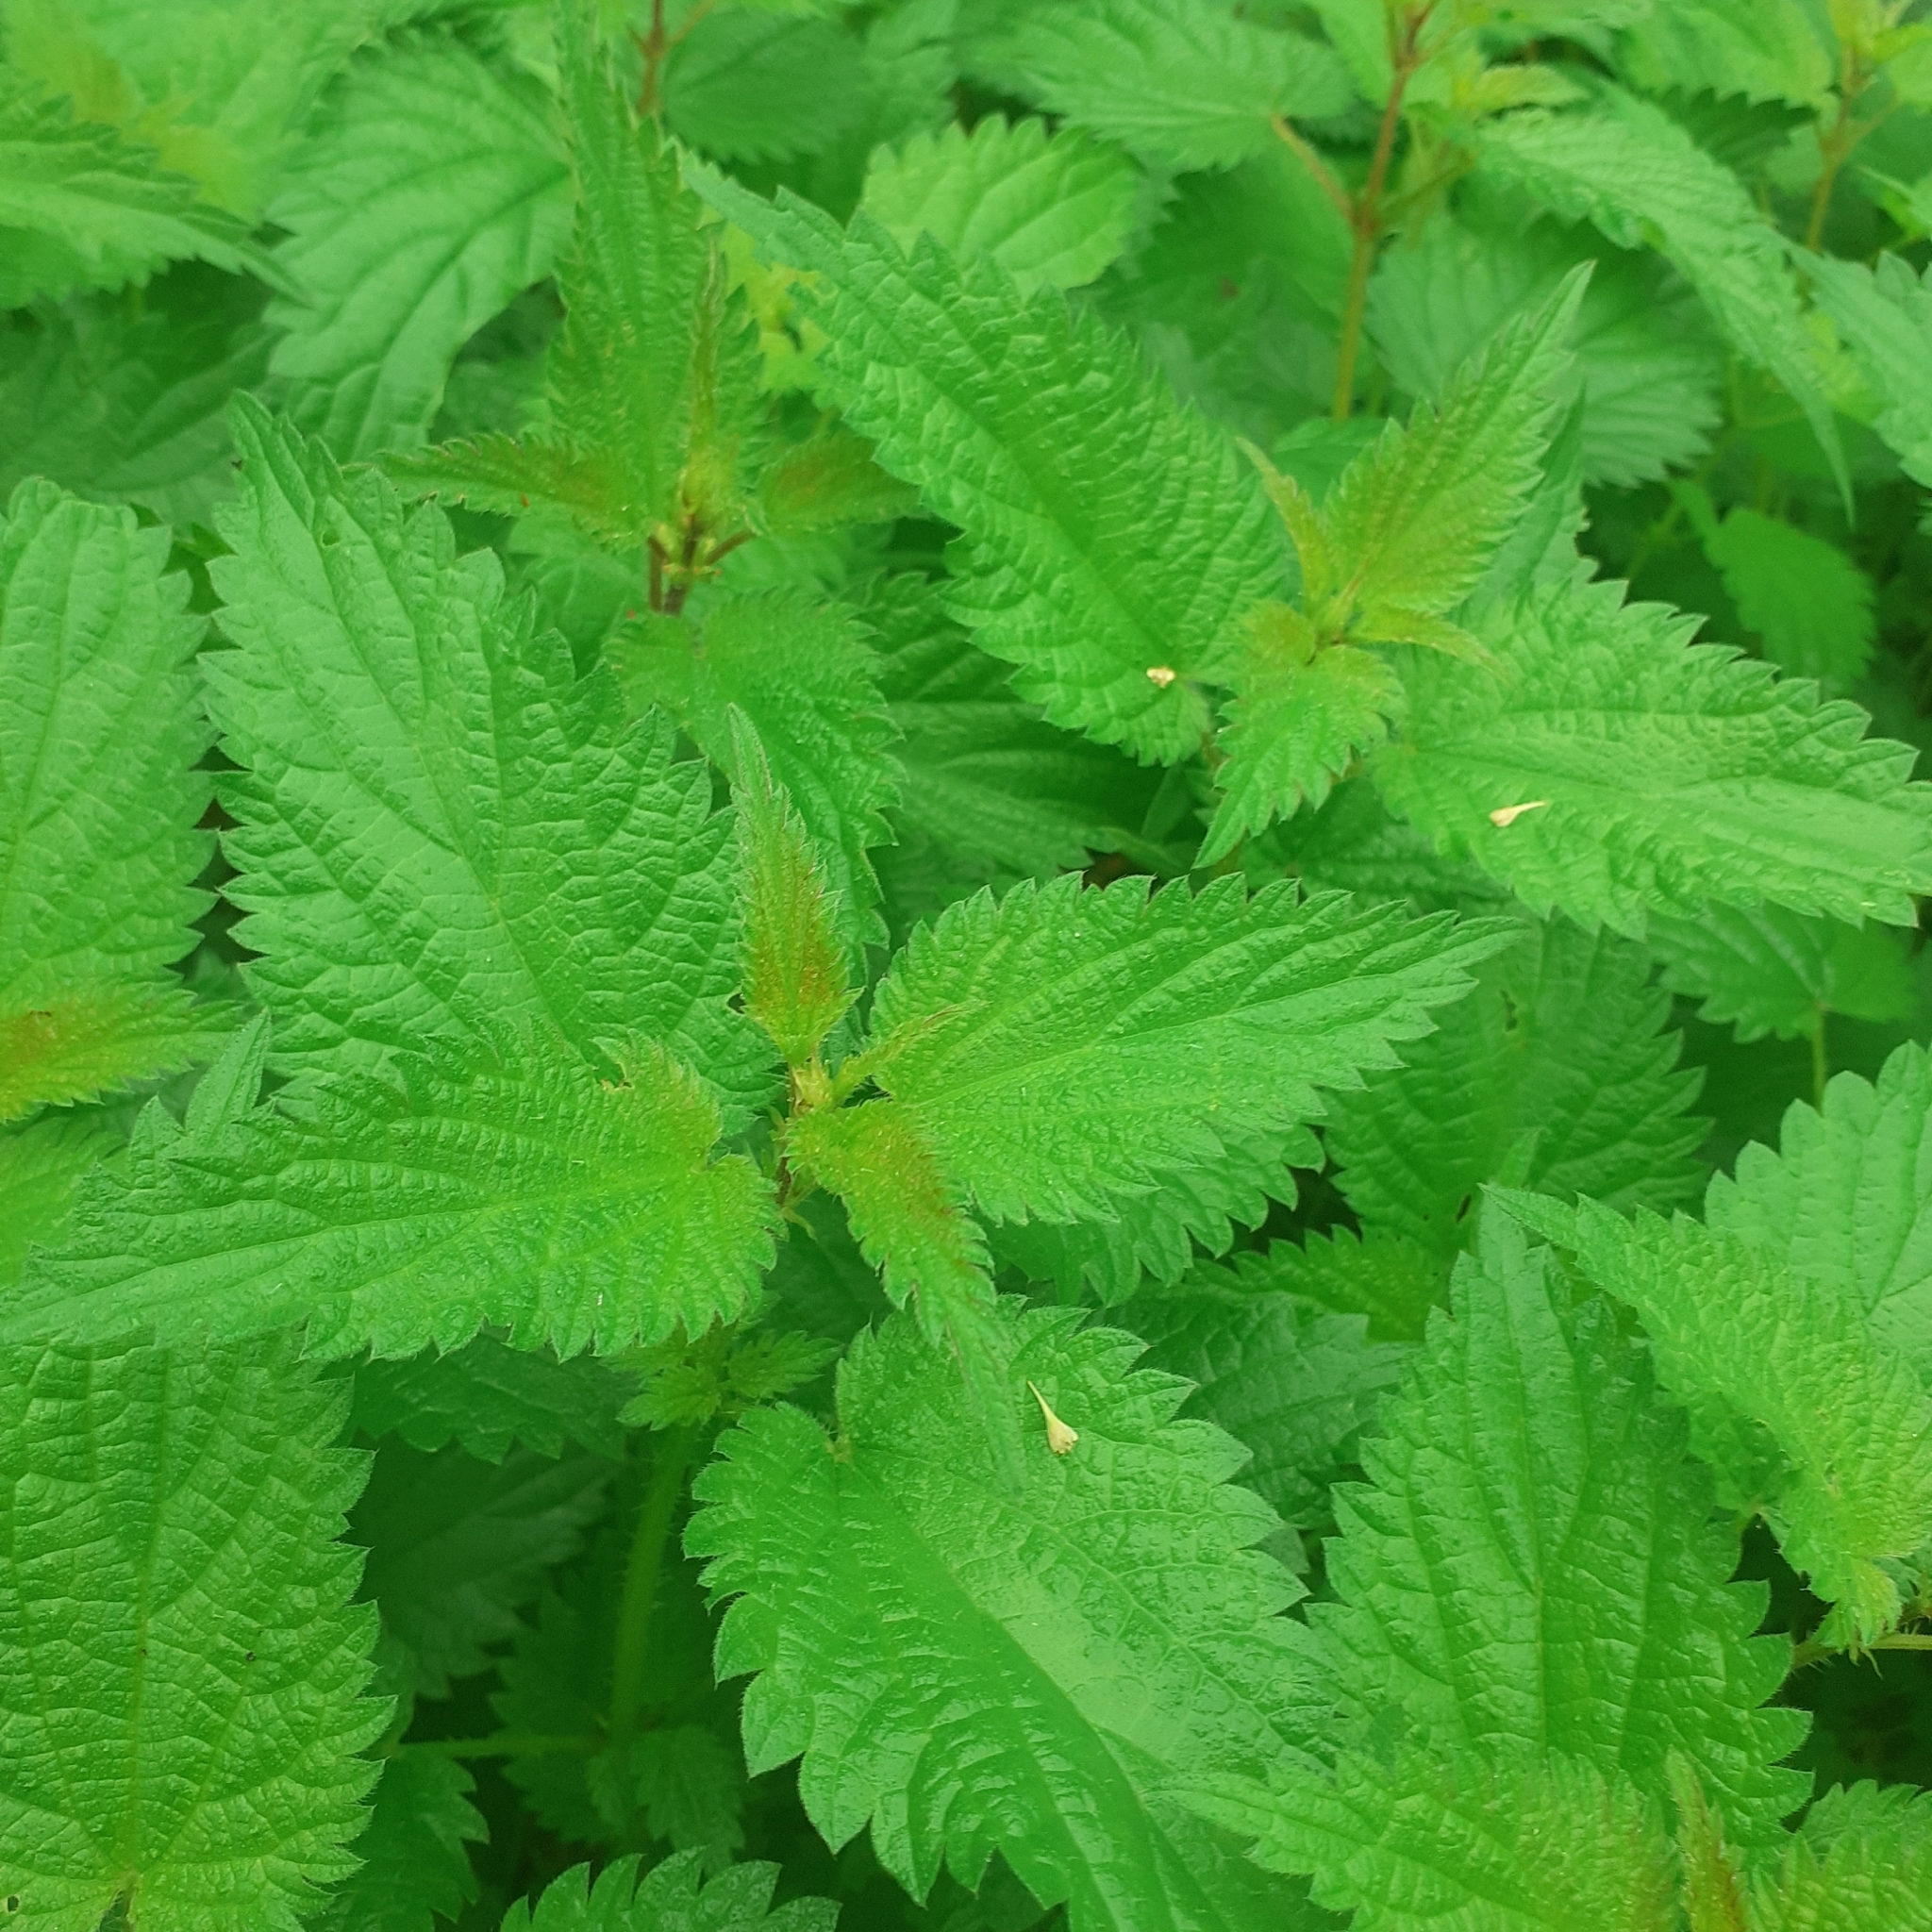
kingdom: Plantae
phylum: Tracheophyta
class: Magnoliopsida
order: Rosales
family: Urticaceae
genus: Urtica
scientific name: Urtica dioica
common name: Common nettle
